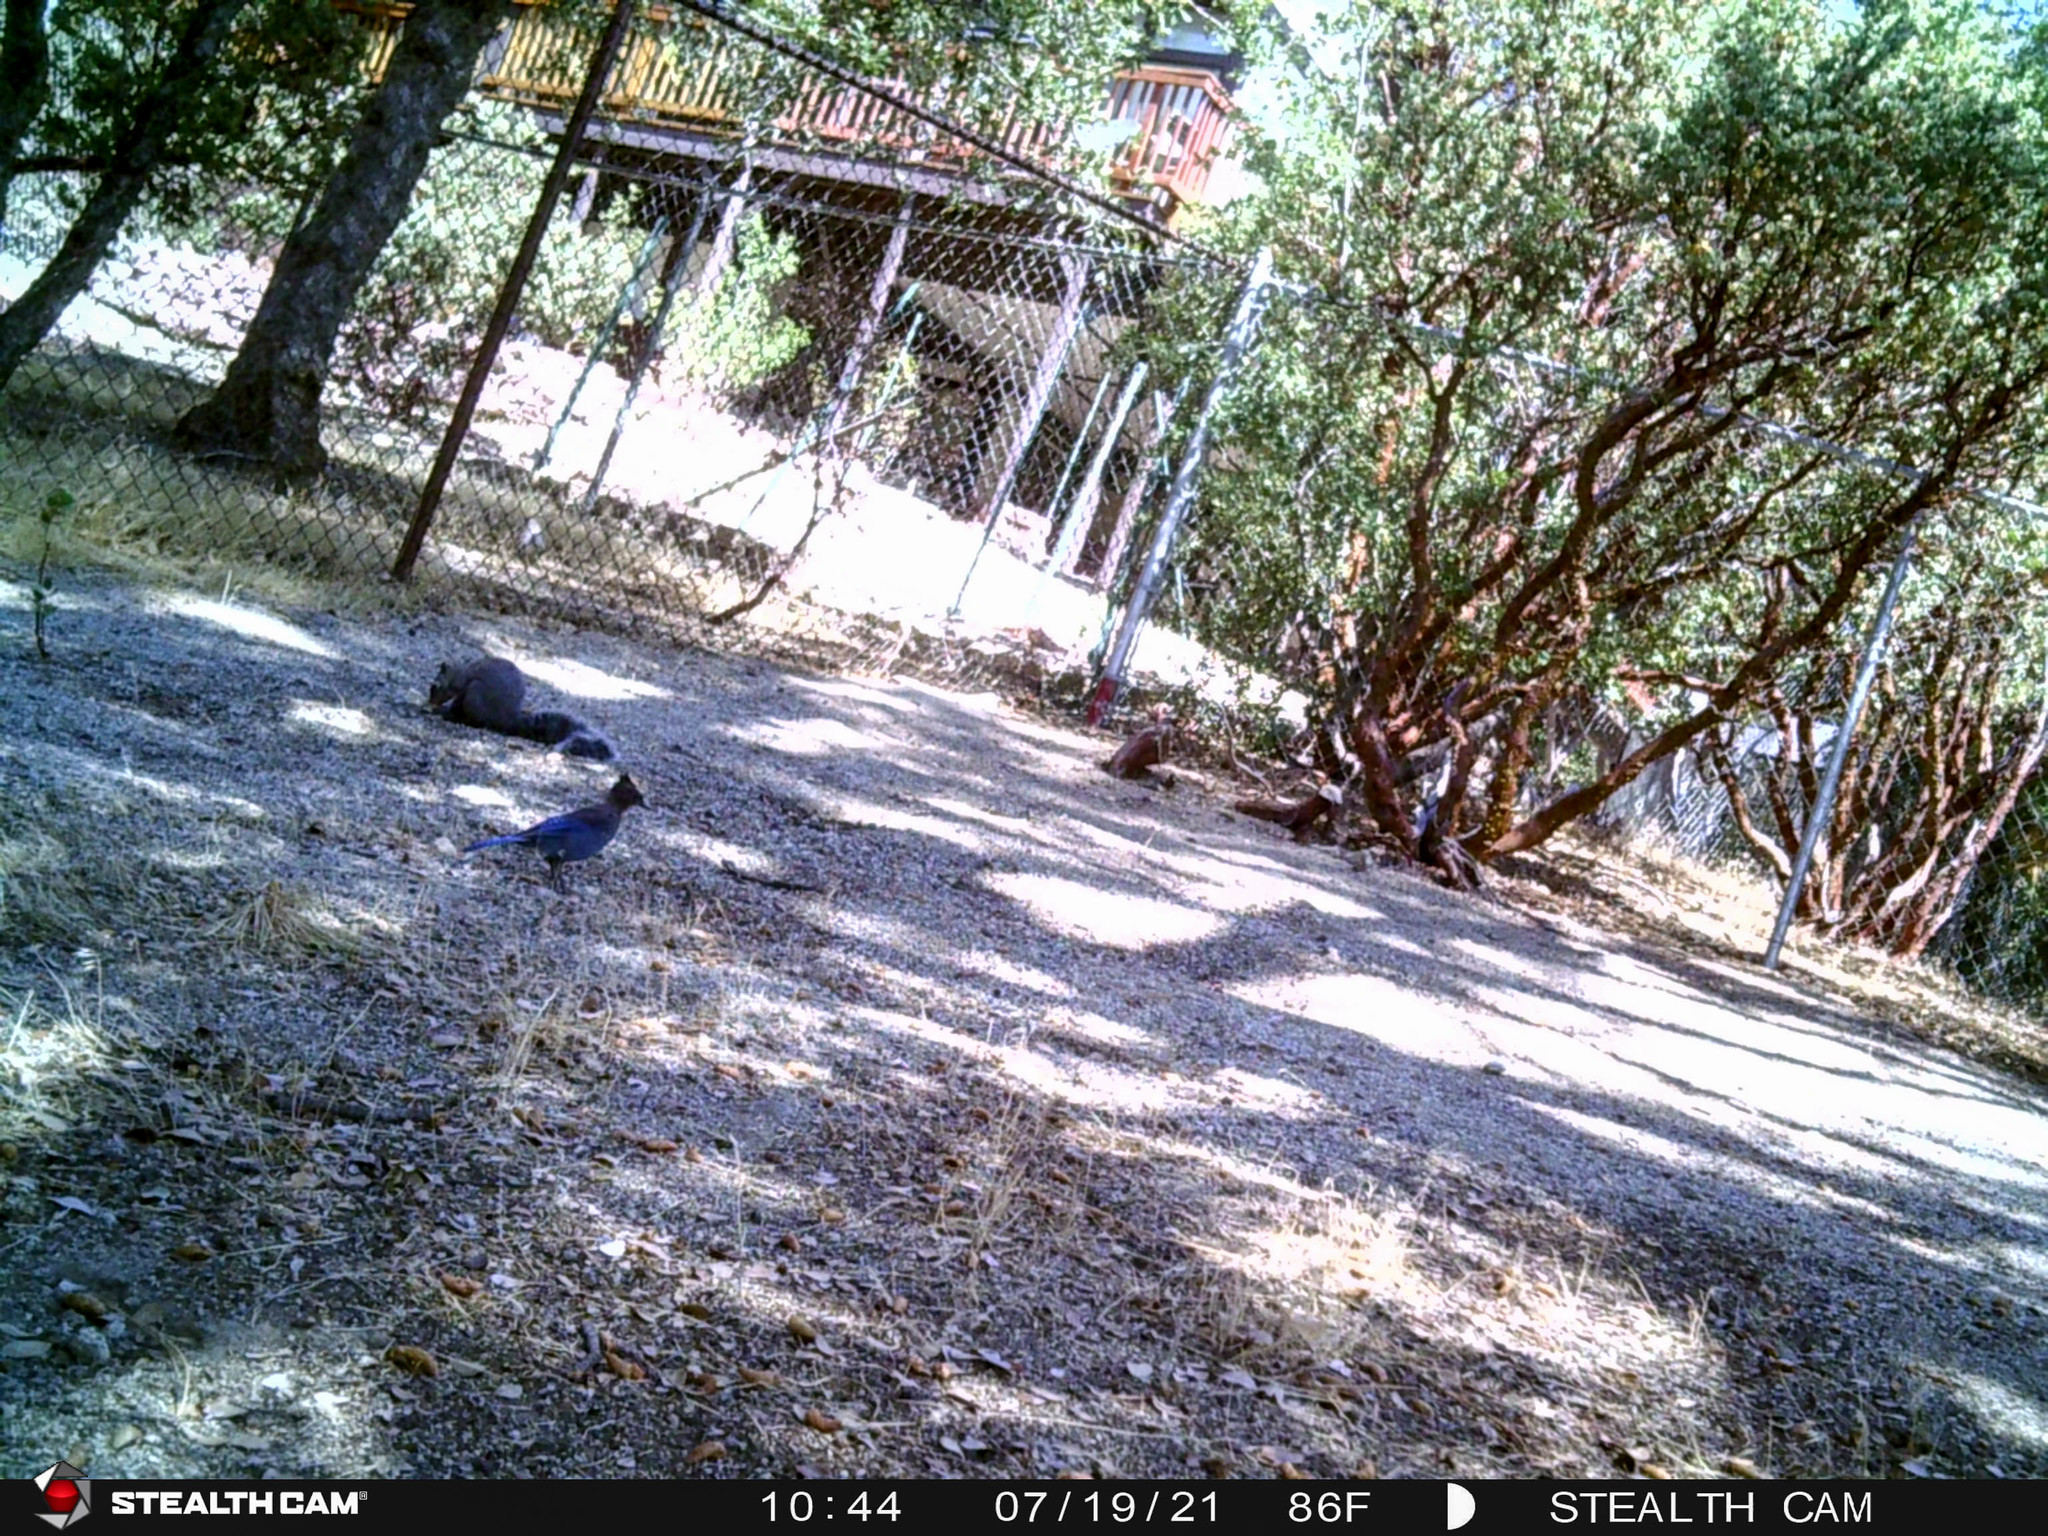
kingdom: Animalia
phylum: Chordata
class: Aves
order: Passeriformes
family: Corvidae
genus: Cyanocitta
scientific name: Cyanocitta stelleri
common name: Steller's jay
